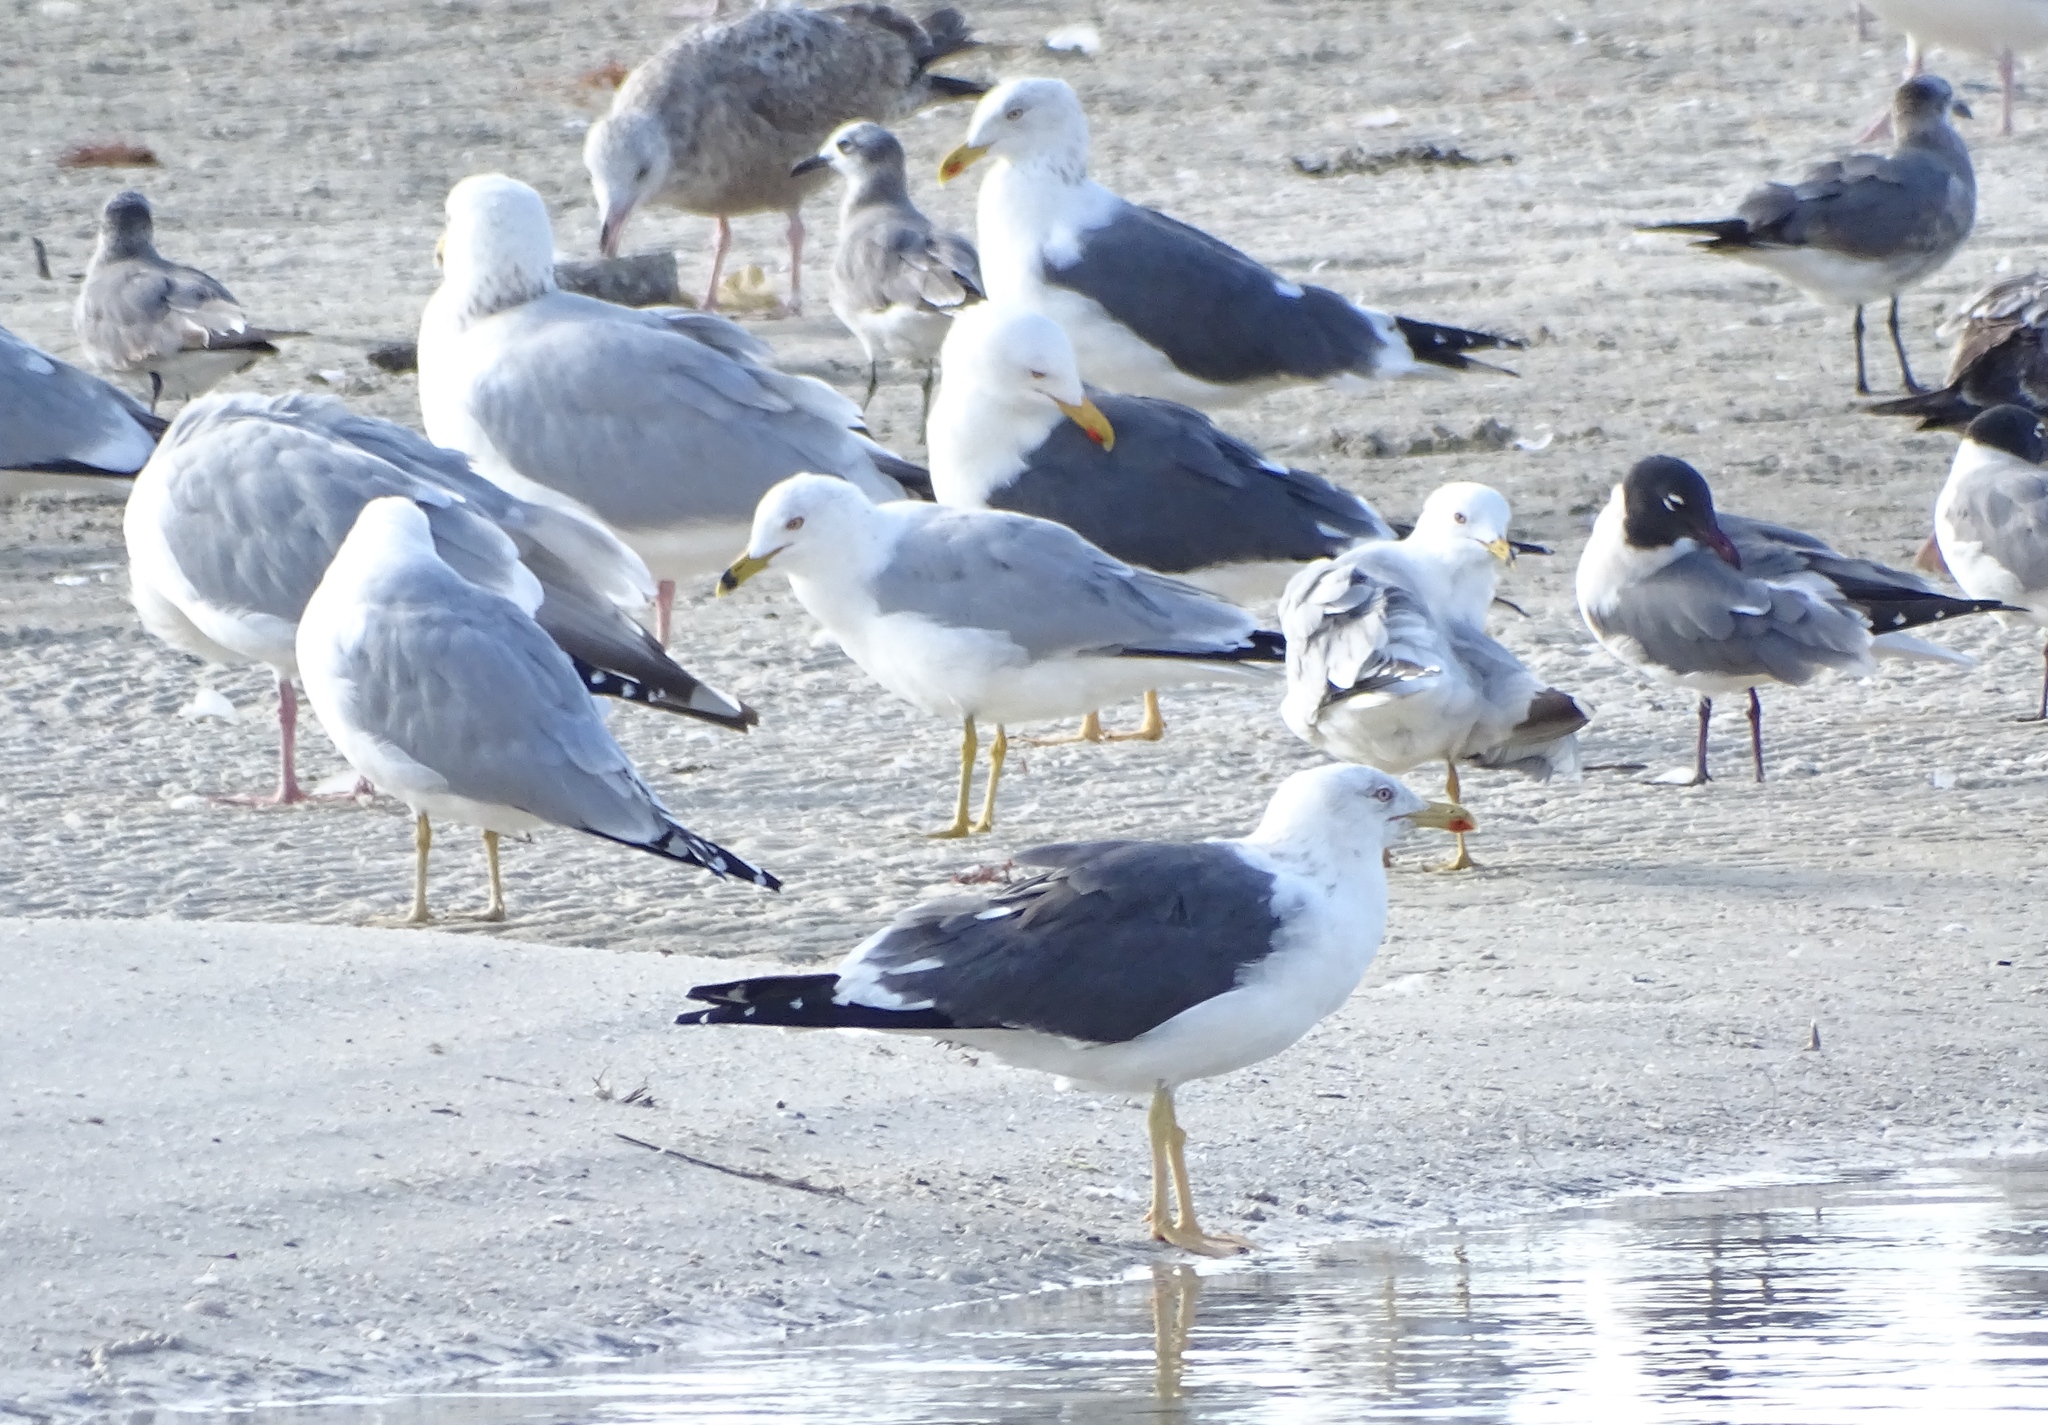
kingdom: Animalia
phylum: Chordata
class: Aves
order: Charadriiformes
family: Laridae
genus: Larus
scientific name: Larus fuscus
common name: Lesser black-backed gull
